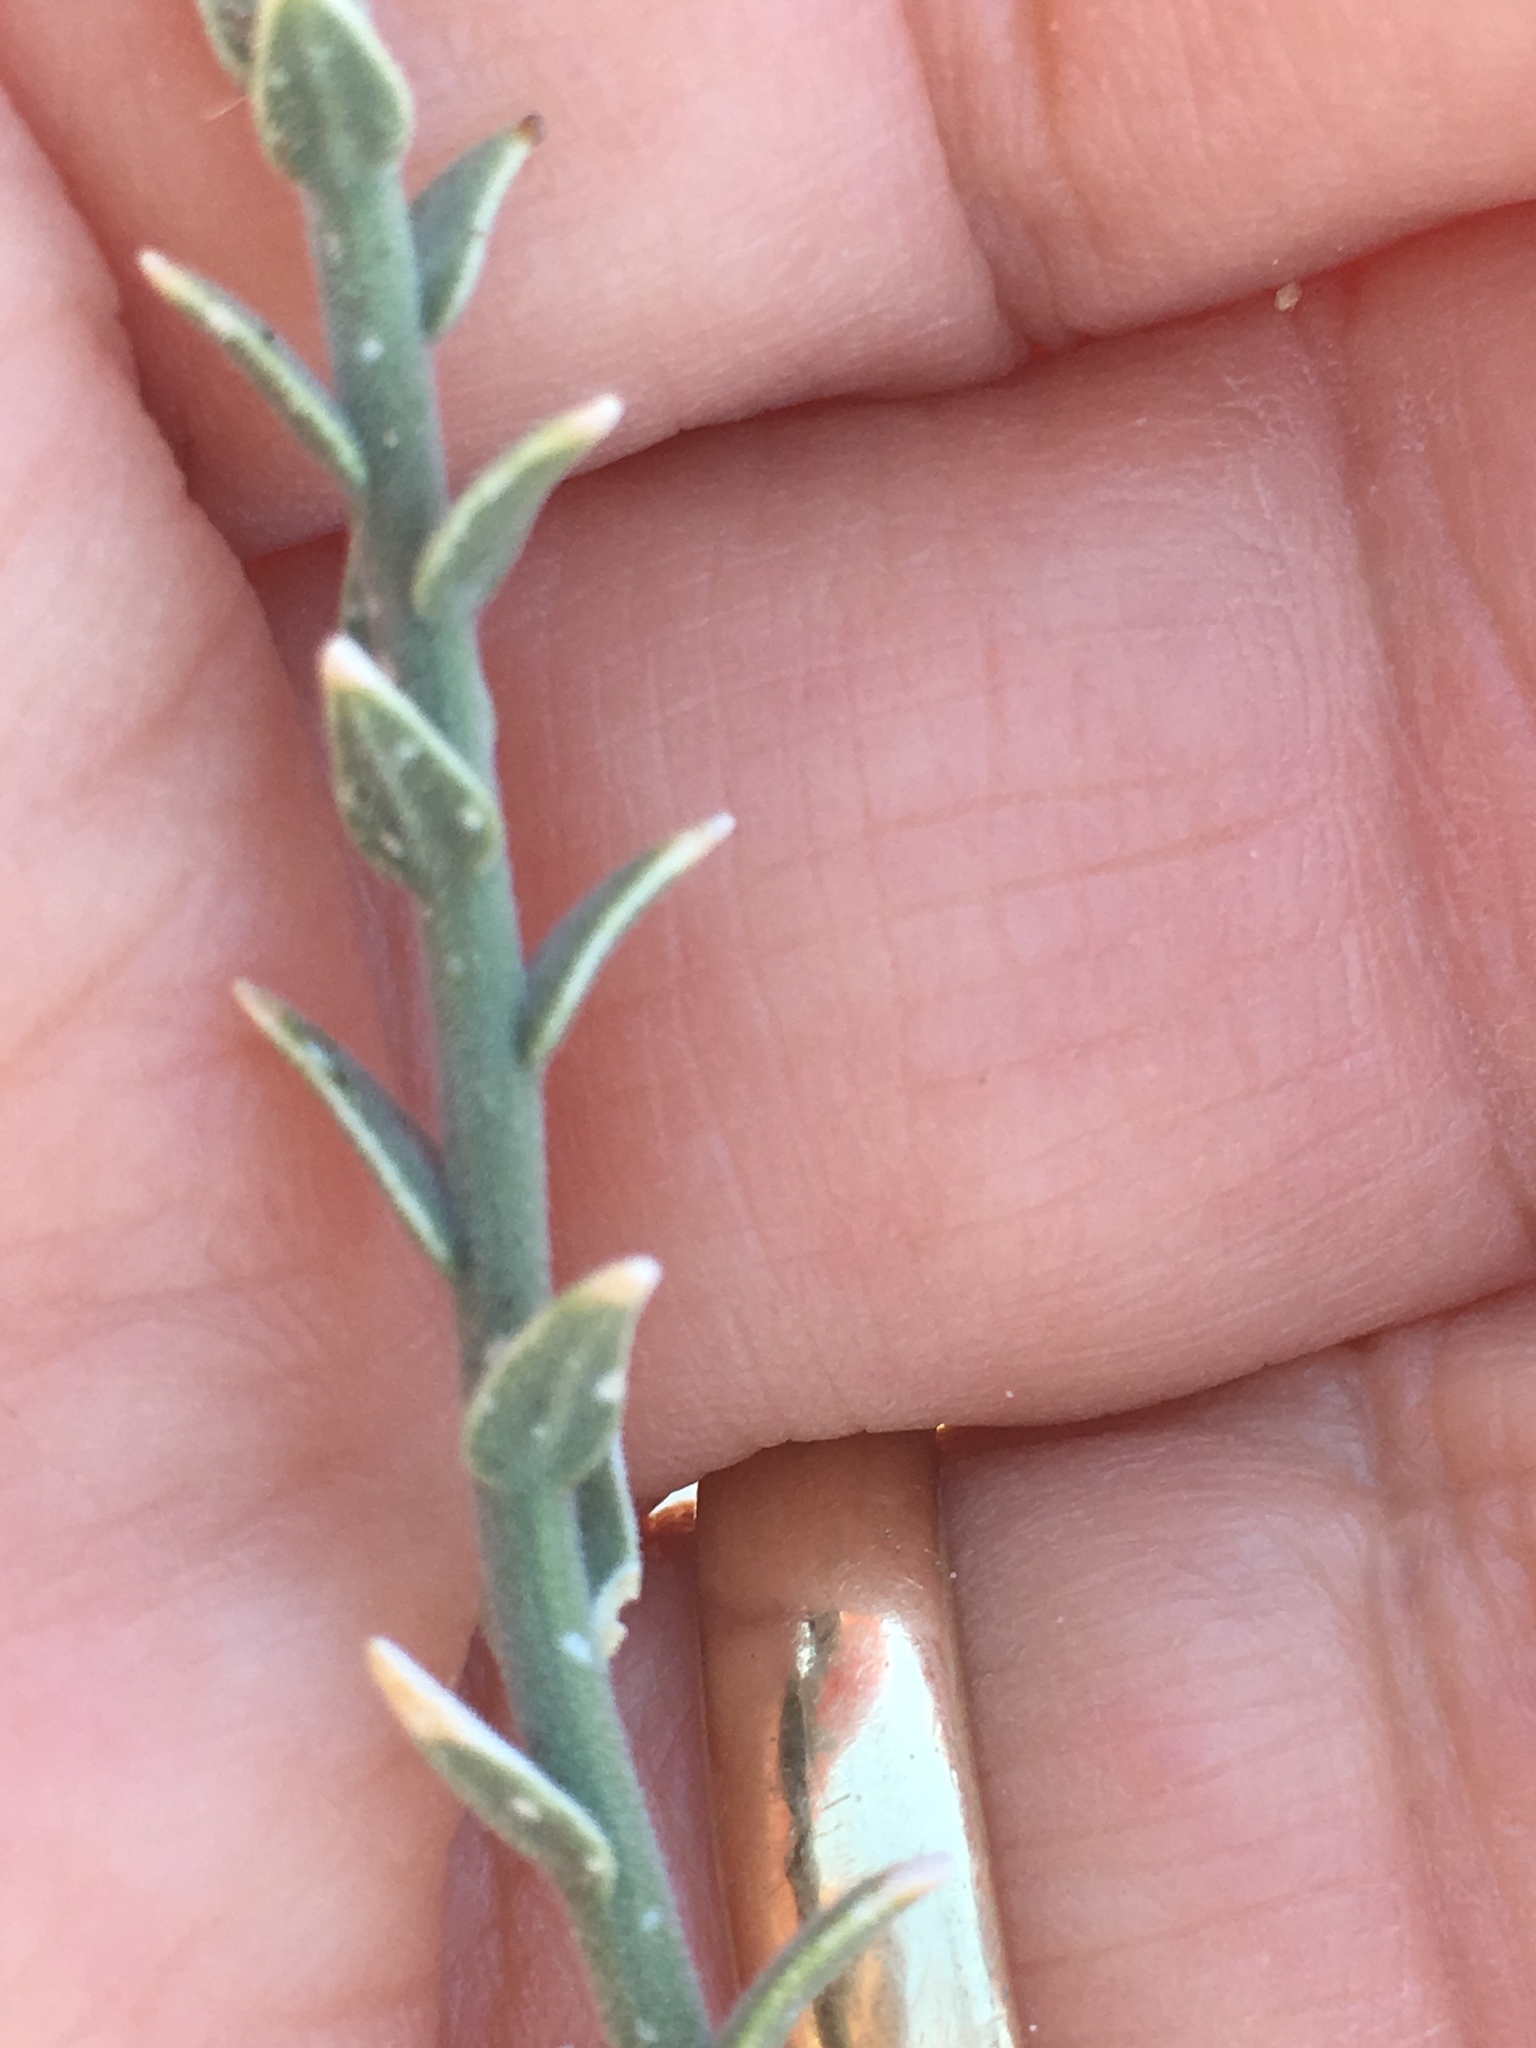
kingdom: Plantae
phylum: Tracheophyta
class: Magnoliopsida
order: Cornales
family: Loasaceae
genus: Petalonyx
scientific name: Petalonyx thurberi
